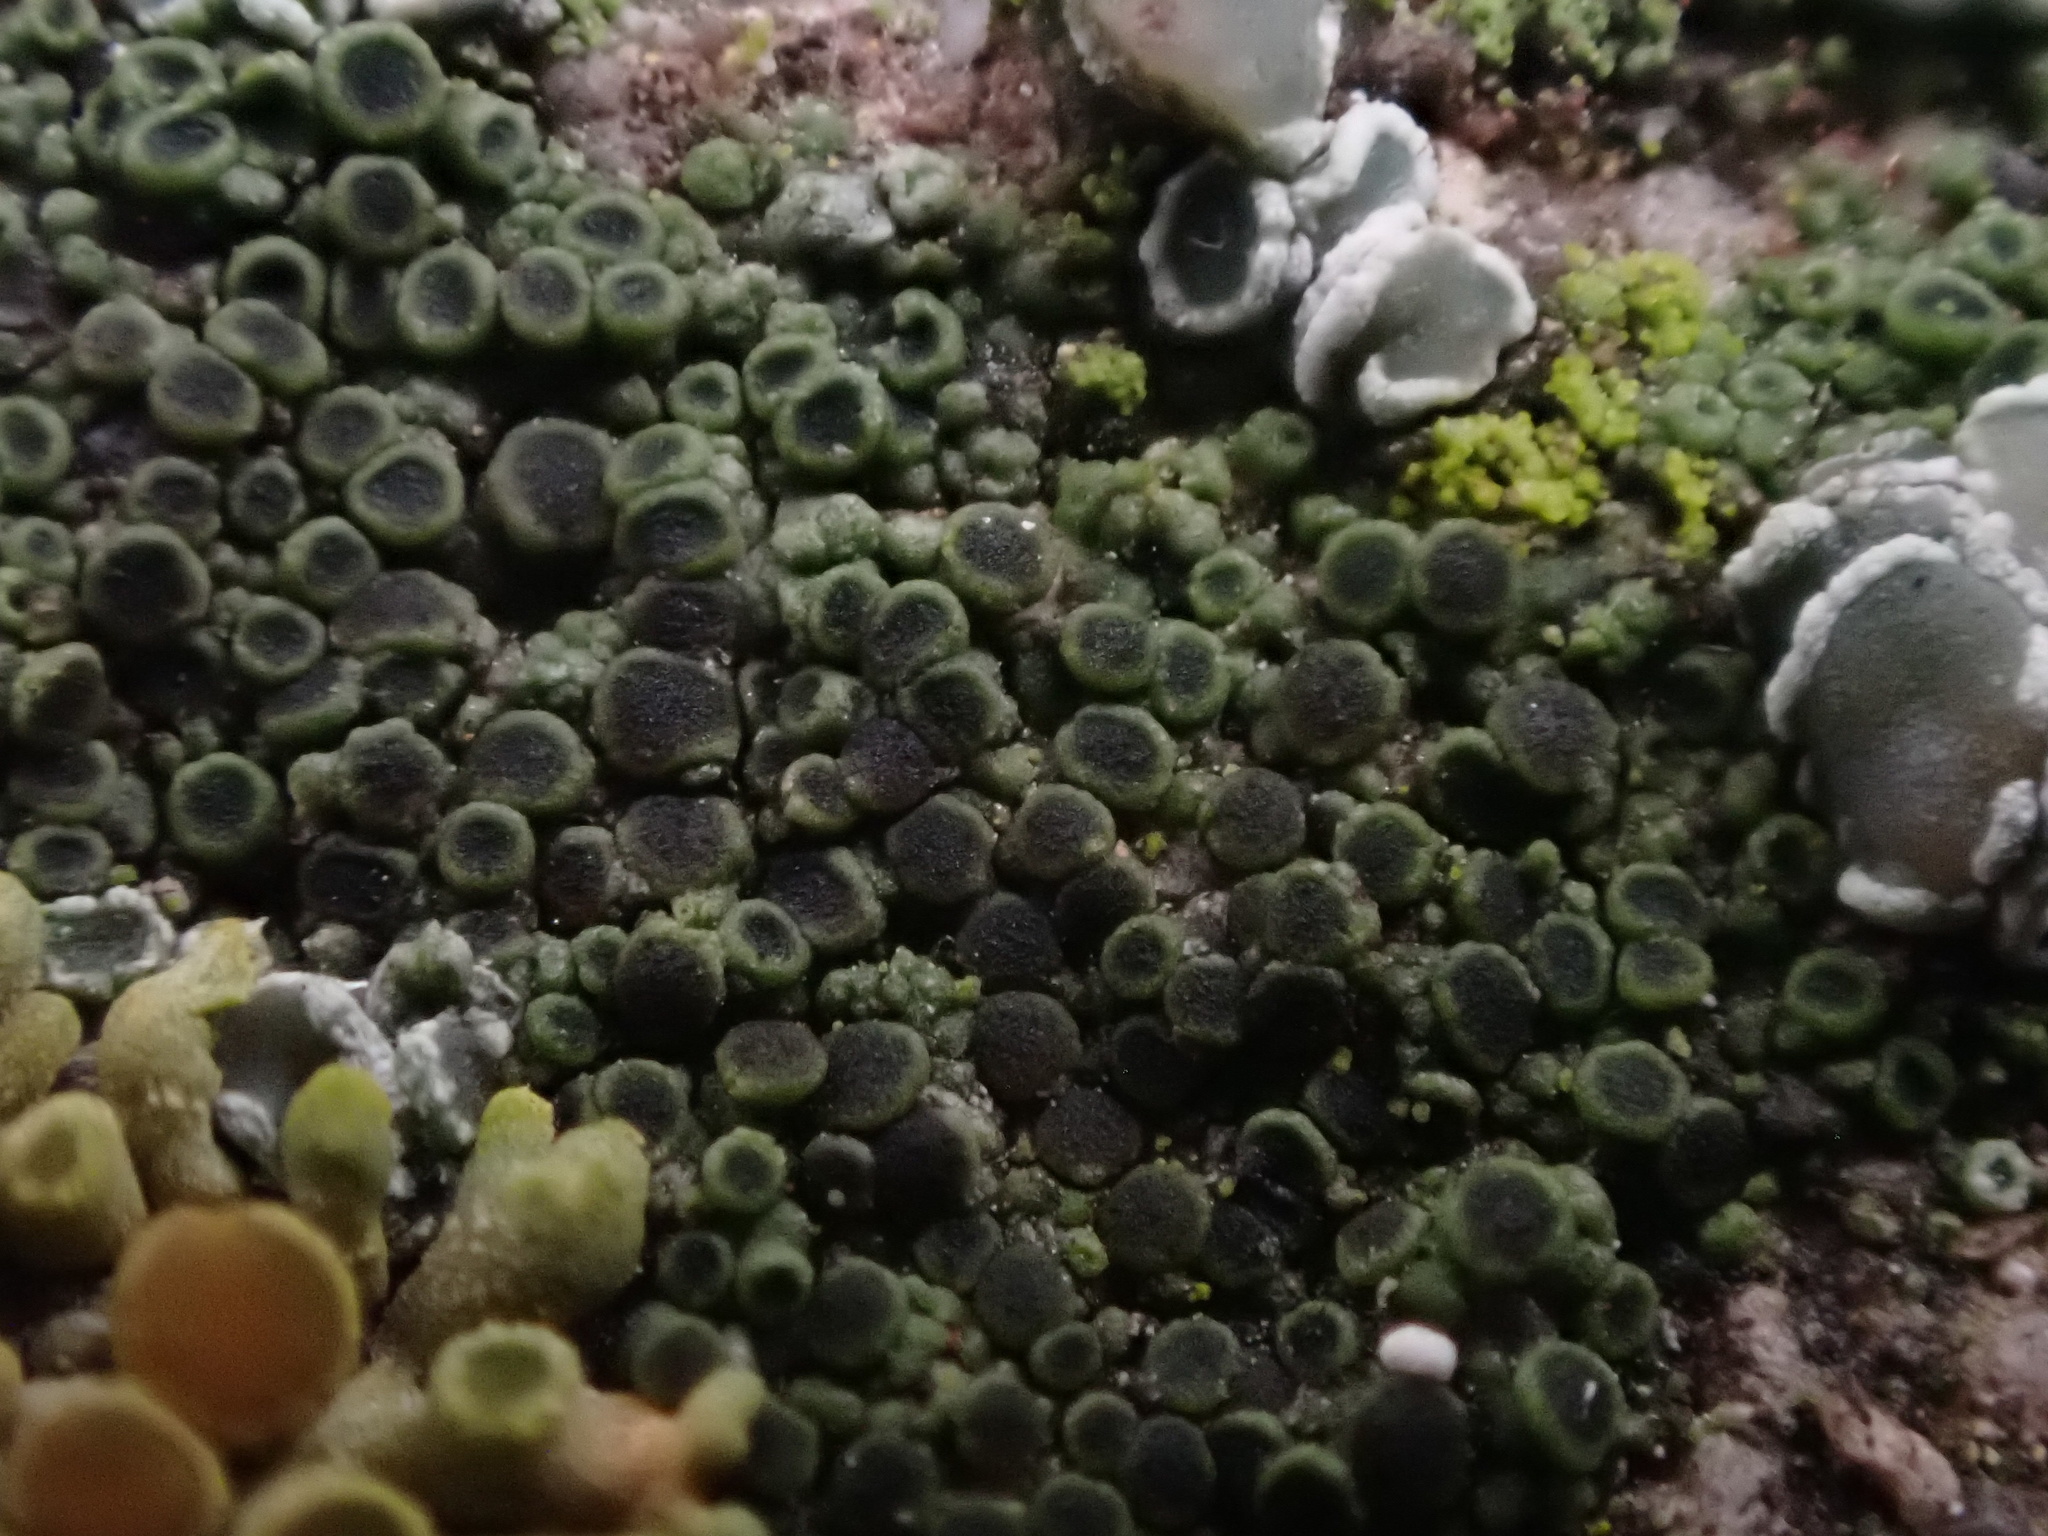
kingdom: Fungi
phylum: Ascomycota
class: Lecanoromycetes
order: Caliciales
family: Physciaceae
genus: Rinodina
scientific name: Rinodina oleae
